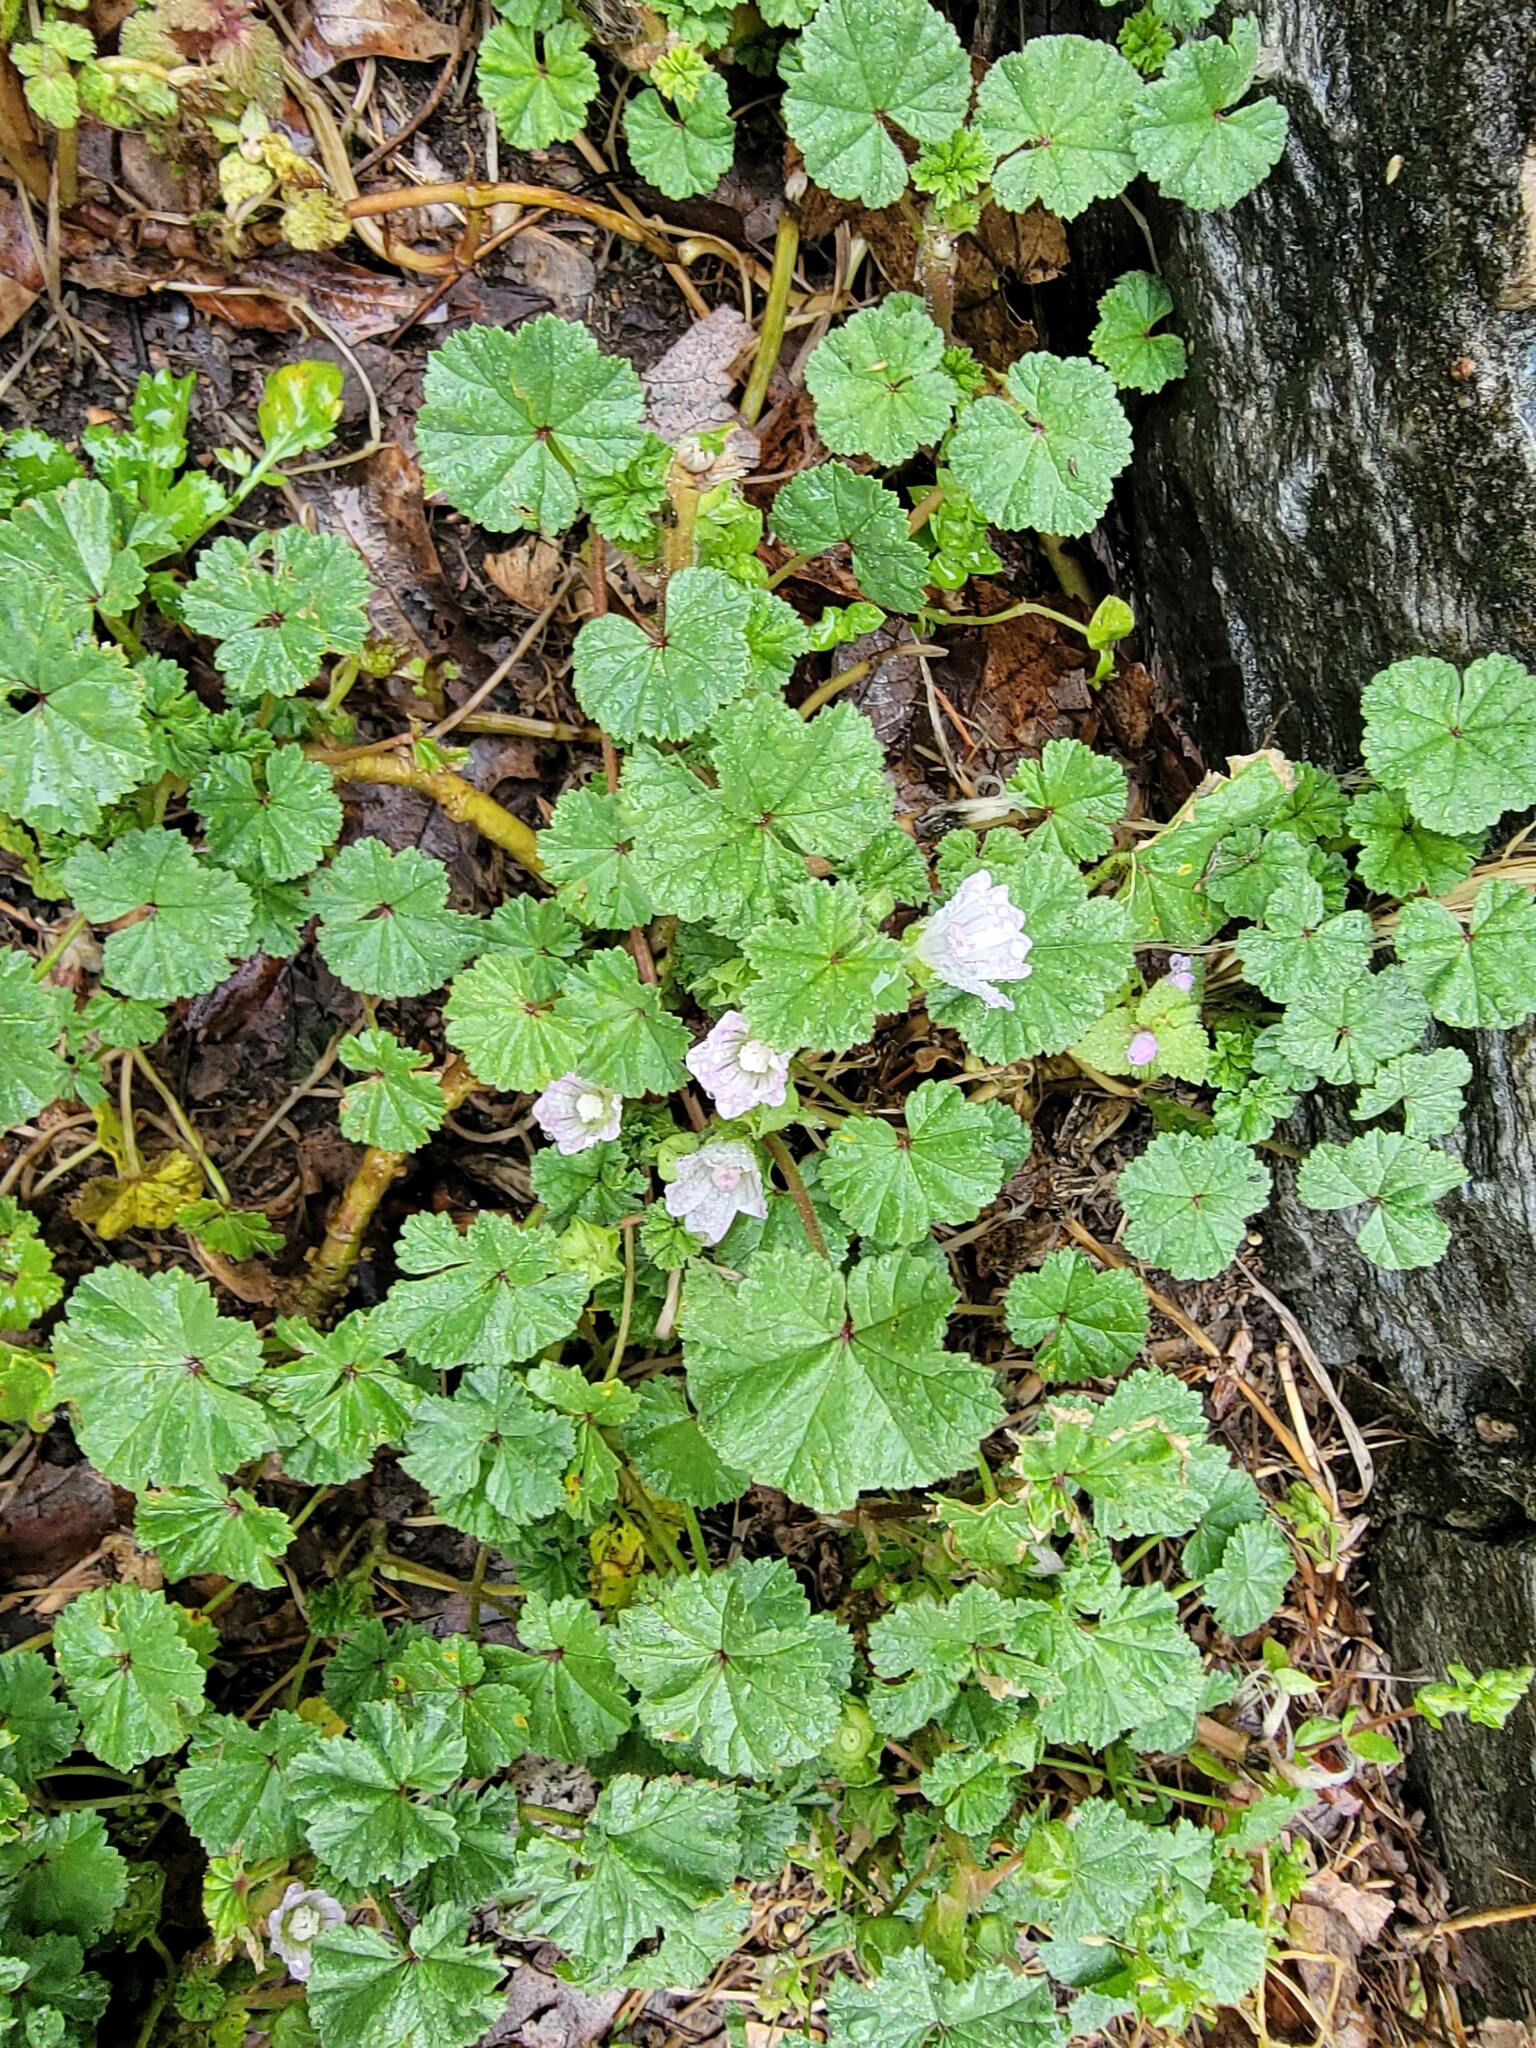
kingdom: Plantae
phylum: Tracheophyta
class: Magnoliopsida
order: Malvales
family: Malvaceae
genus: Malva
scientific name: Malva neglecta
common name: Common mallow
